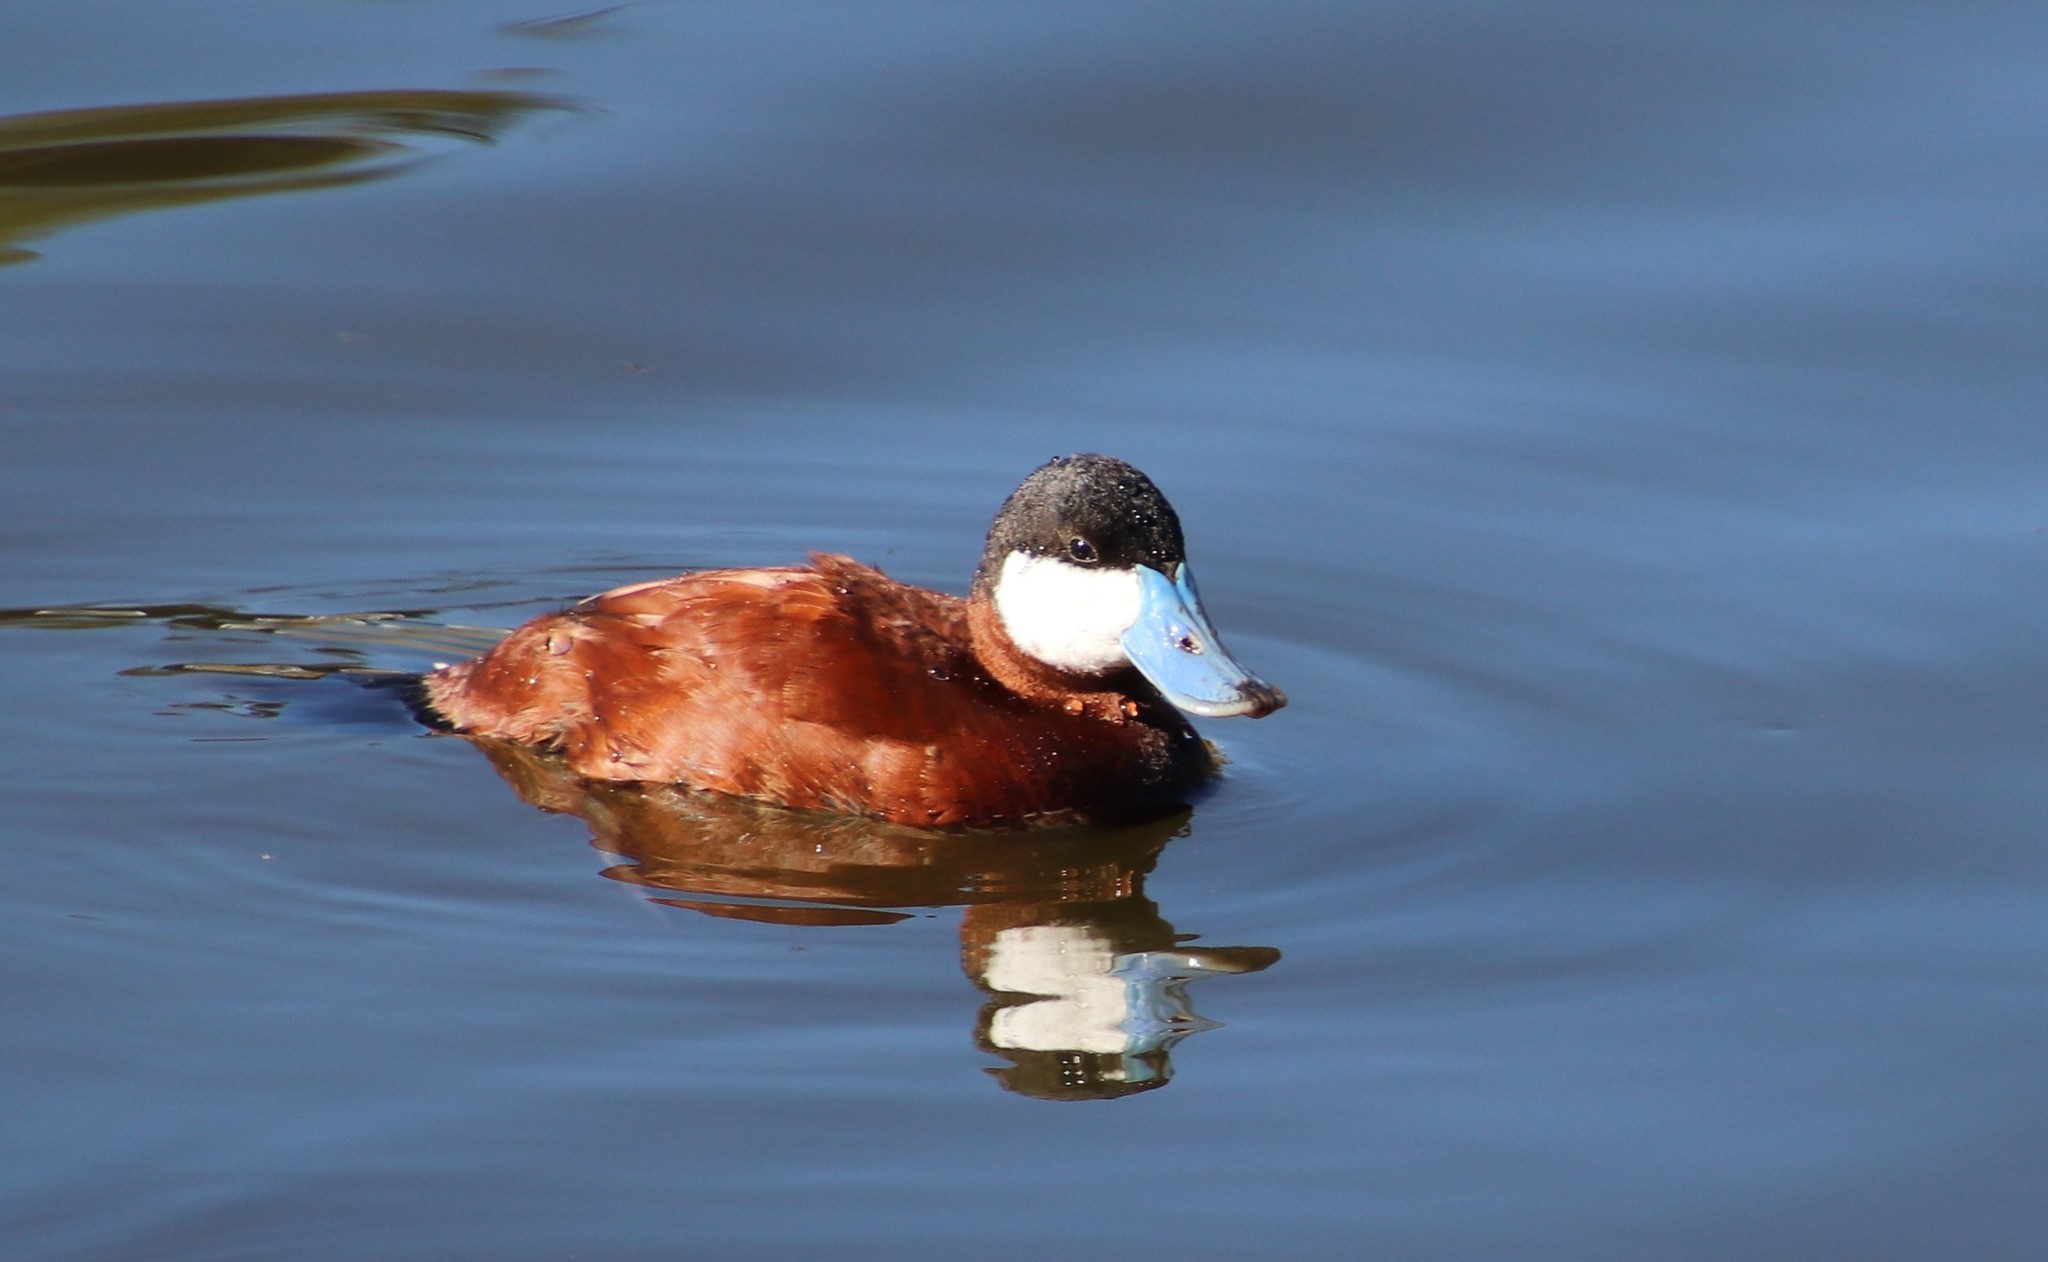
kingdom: Animalia
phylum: Chordata
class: Aves
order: Anseriformes
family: Anatidae
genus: Oxyura
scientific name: Oxyura jamaicensis
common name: Ruddy duck
